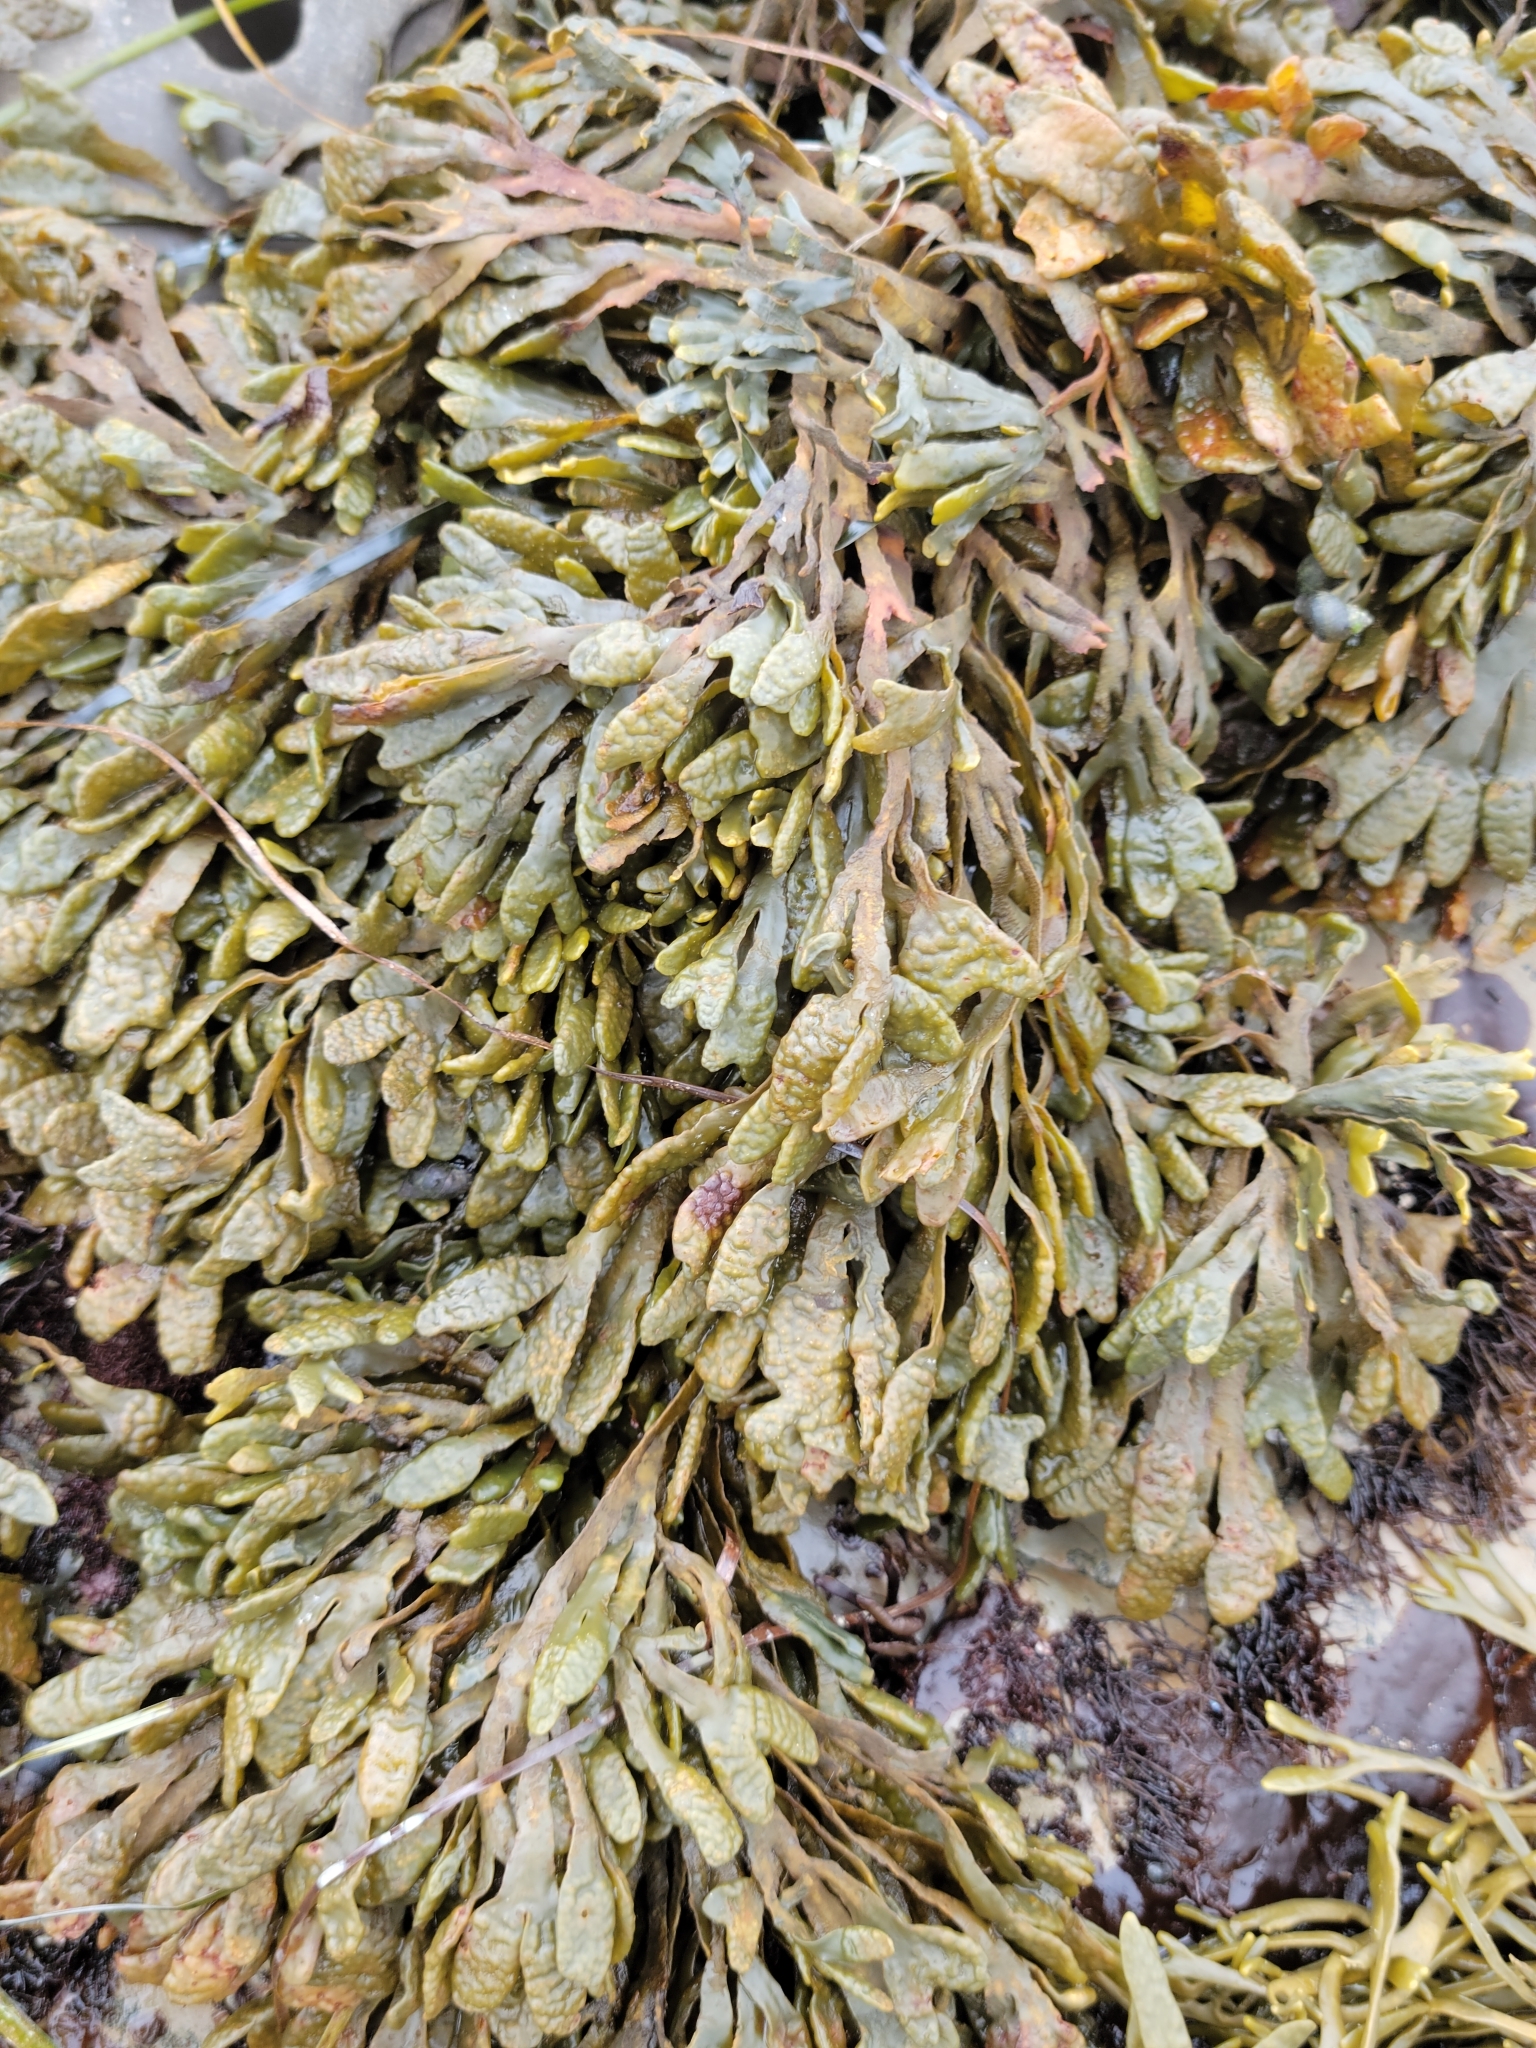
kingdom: Chromista
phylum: Ochrophyta
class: Phaeophyceae
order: Fucales
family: Fucaceae
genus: Pelvetiopsis
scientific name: Pelvetiopsis limitata
